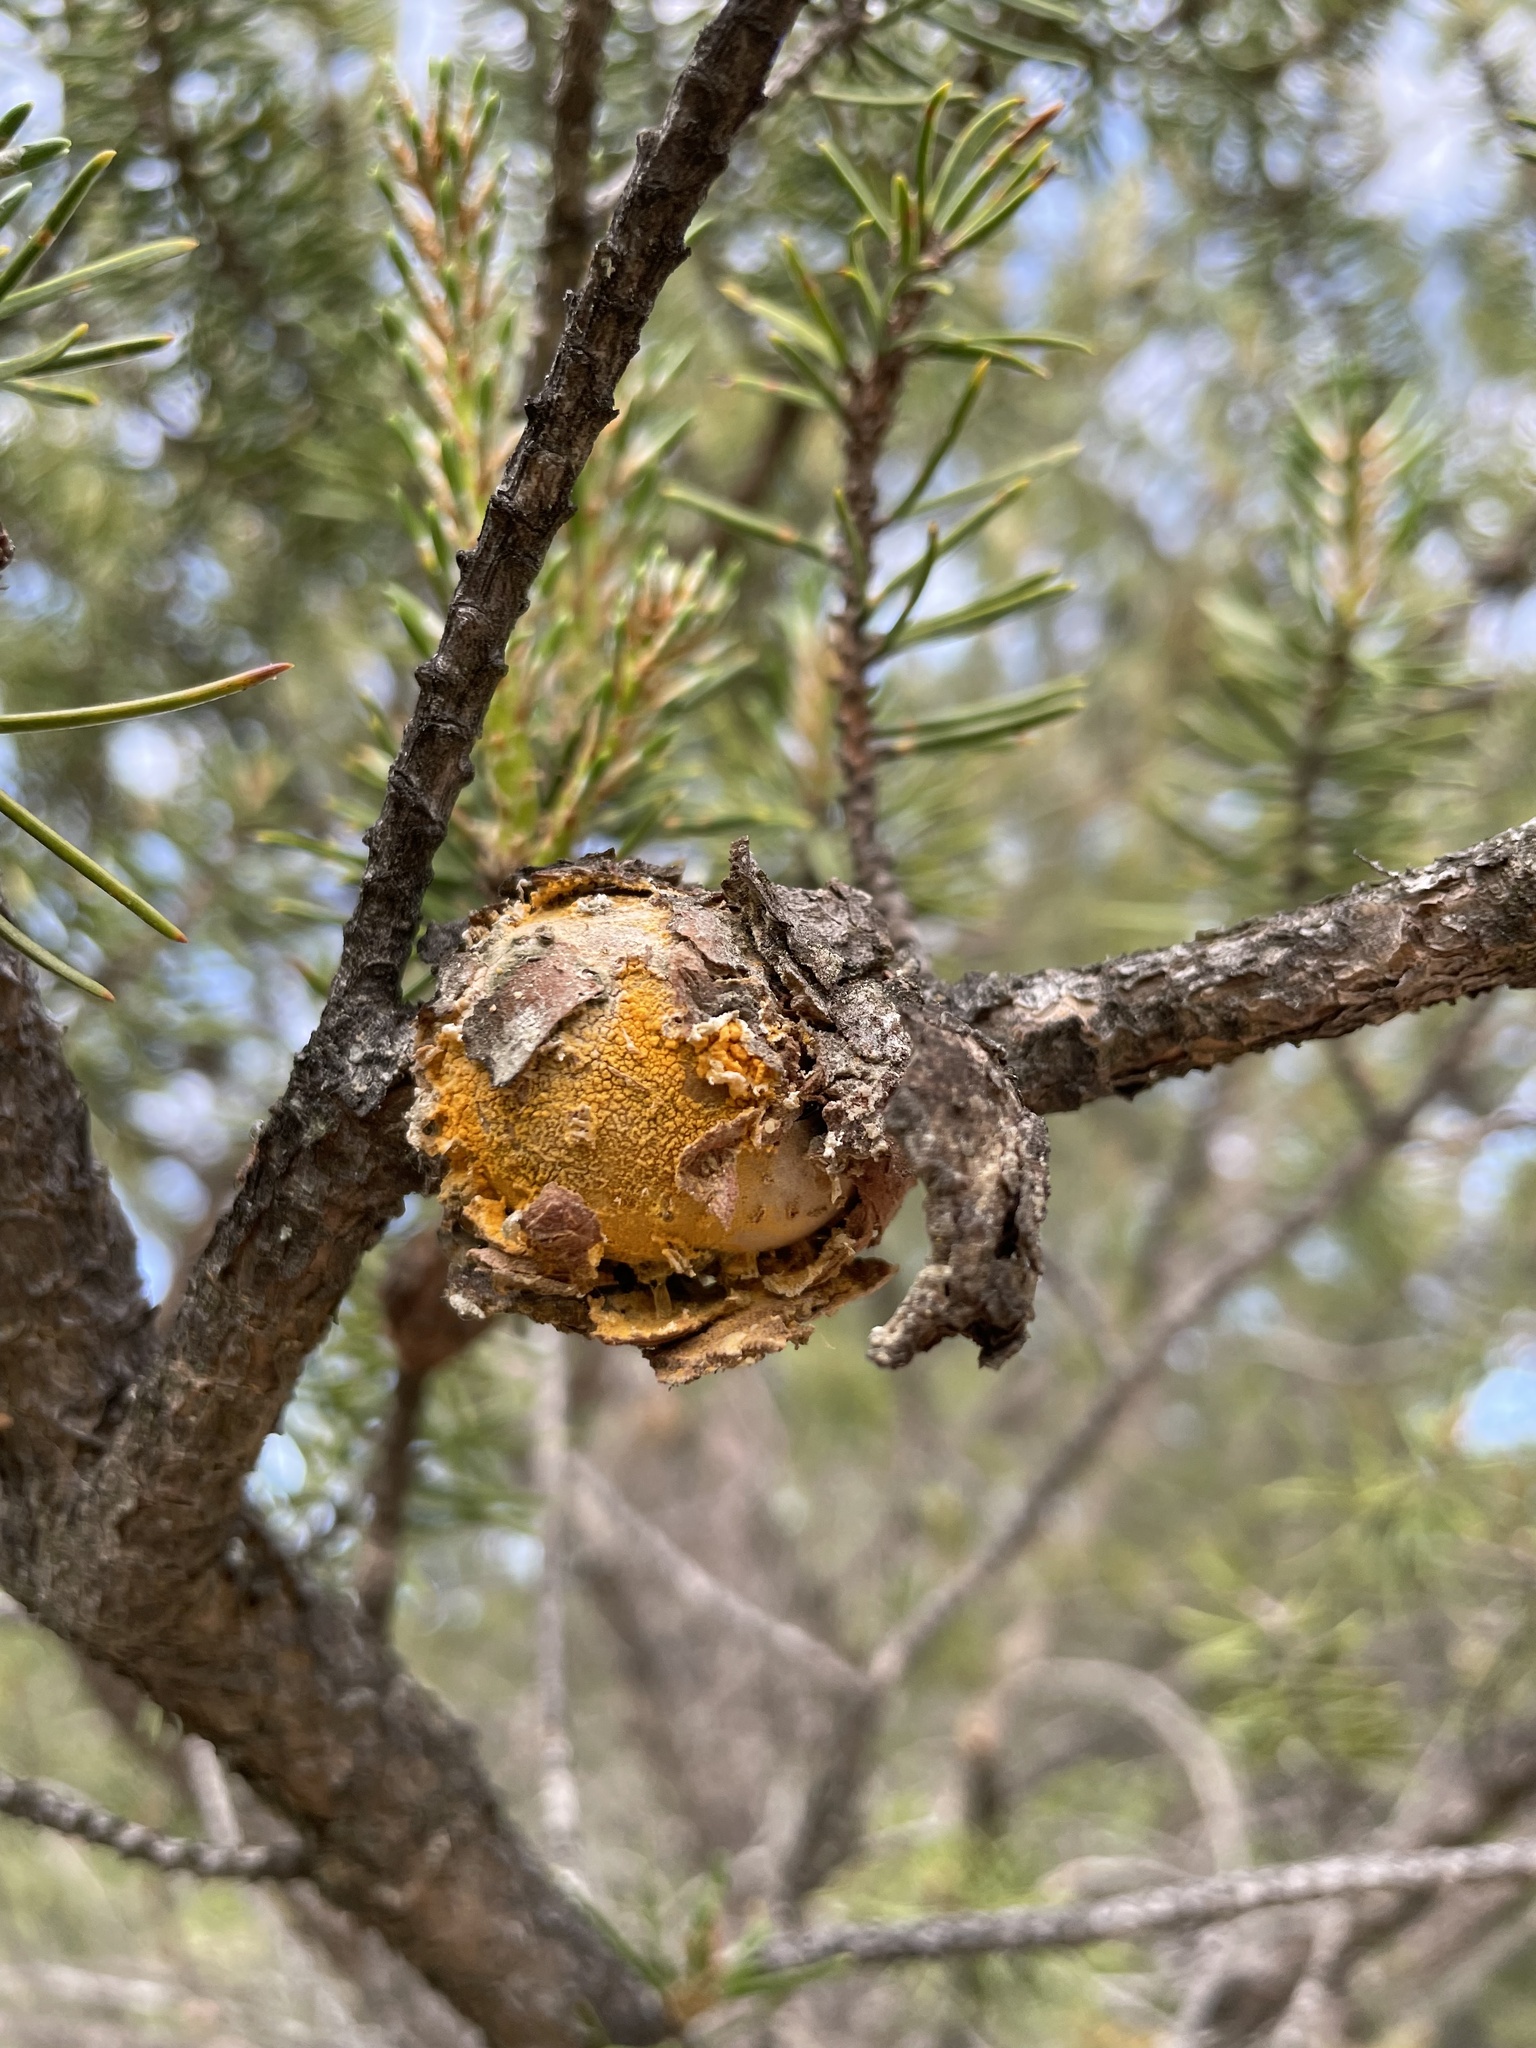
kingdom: Fungi
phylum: Basidiomycota
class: Pucciniomycetes
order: Pucciniales
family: Cronartiaceae
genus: Cronartium
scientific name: Cronartium quercuum
